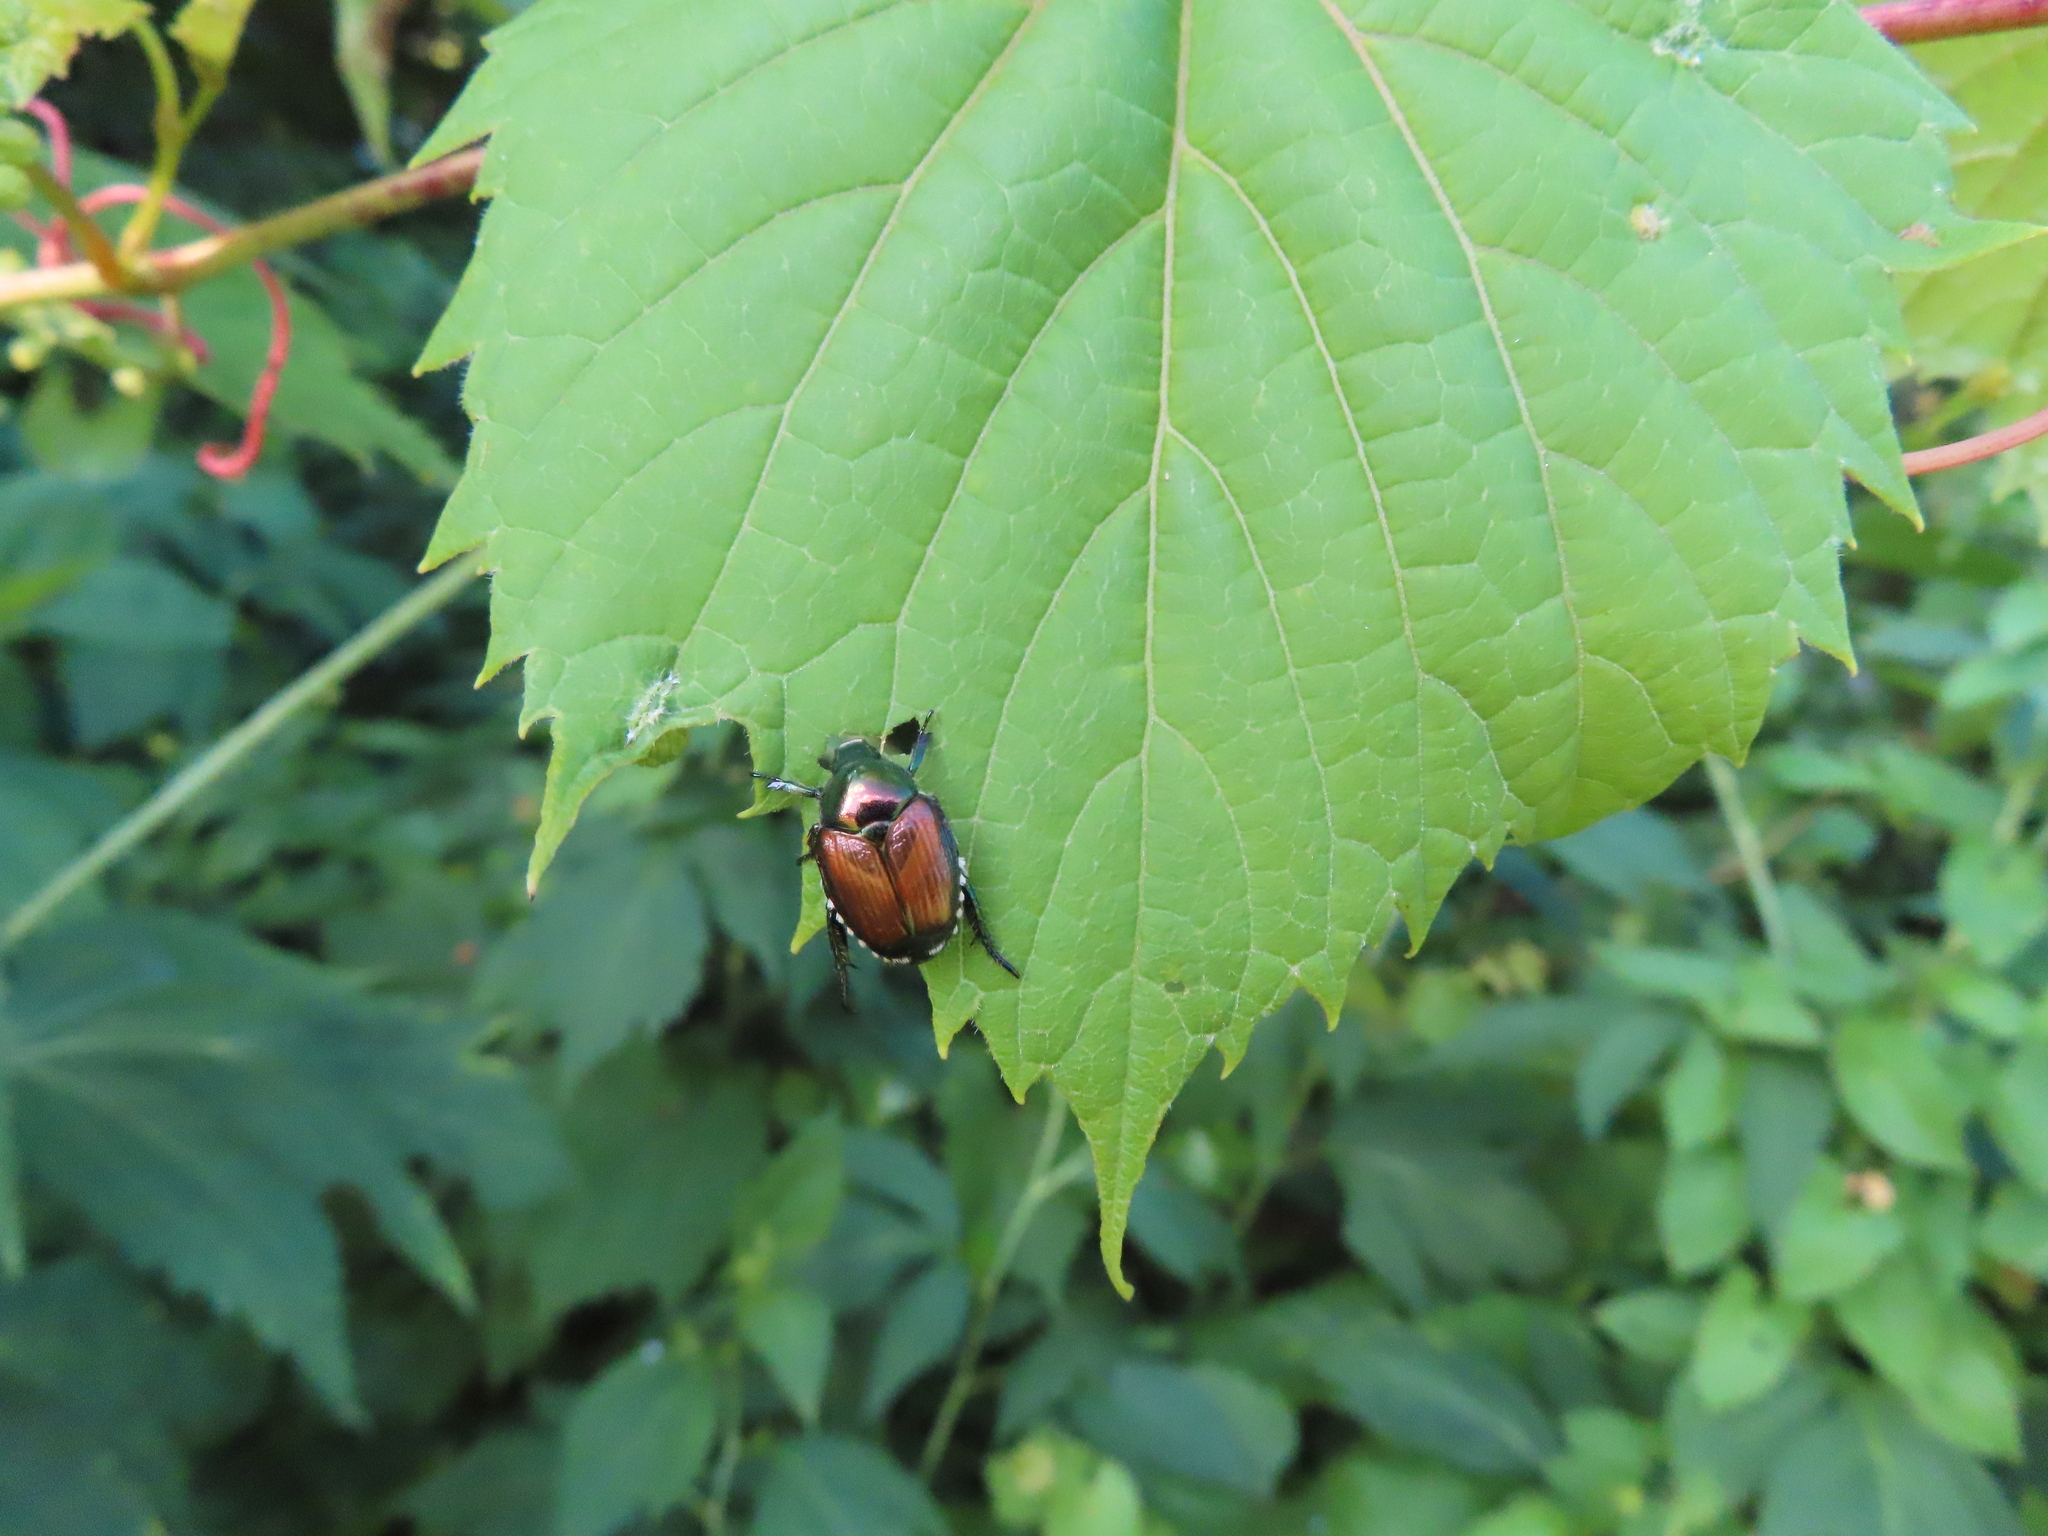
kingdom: Animalia
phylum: Arthropoda
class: Insecta
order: Coleoptera
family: Scarabaeidae
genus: Popillia
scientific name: Popillia japonica
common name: Japanese beetle
